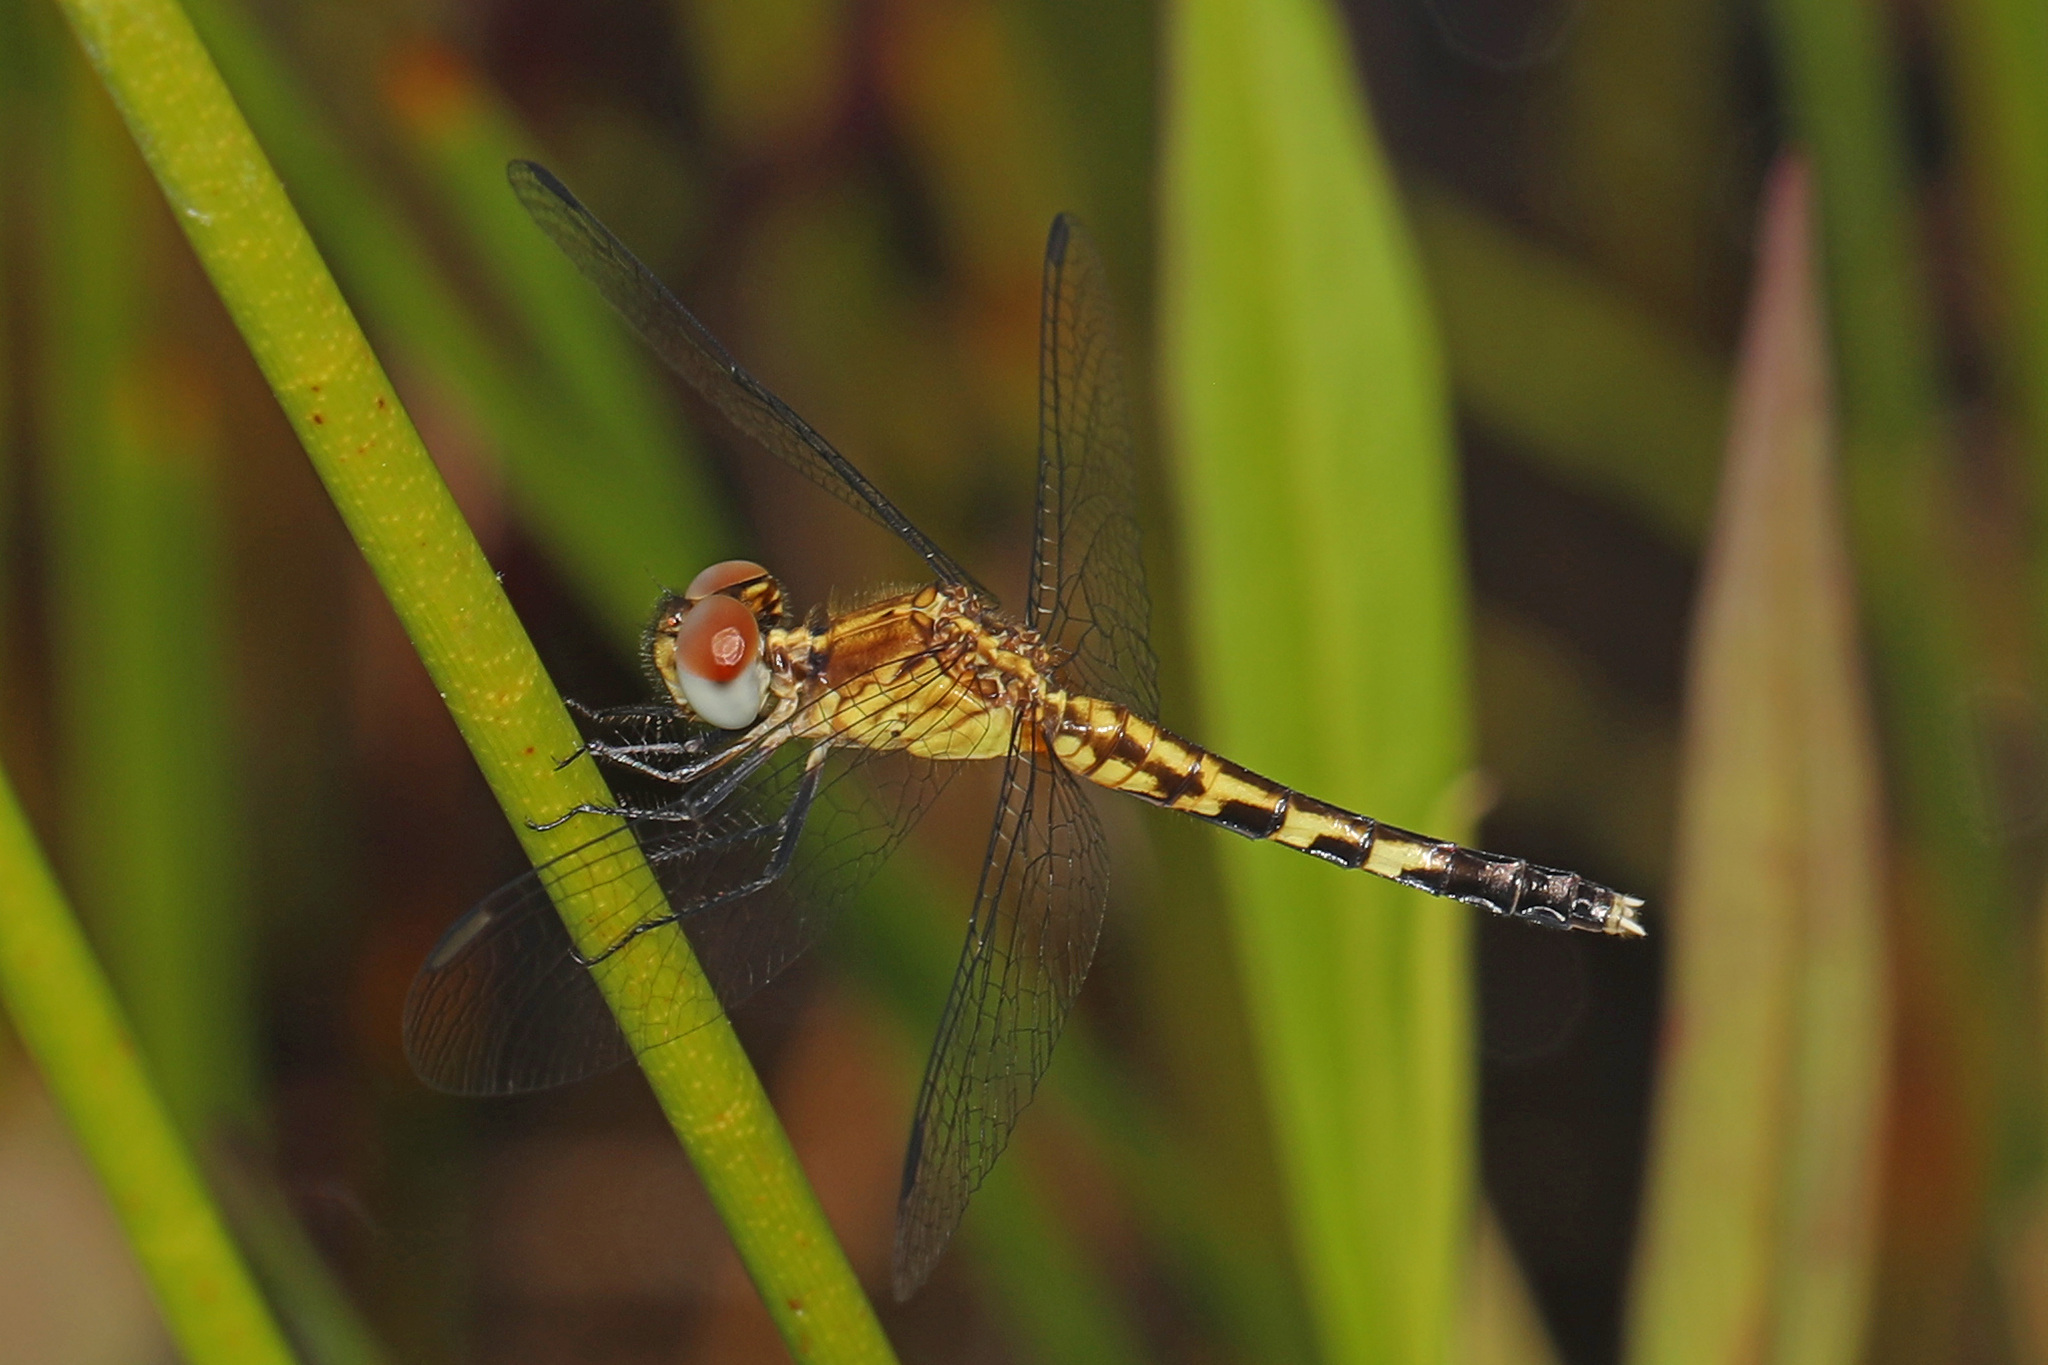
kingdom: Animalia
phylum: Arthropoda
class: Insecta
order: Odonata
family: Libellulidae
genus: Erythrodiplax
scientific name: Erythrodiplax minuscula
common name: Little blue dragonlet
